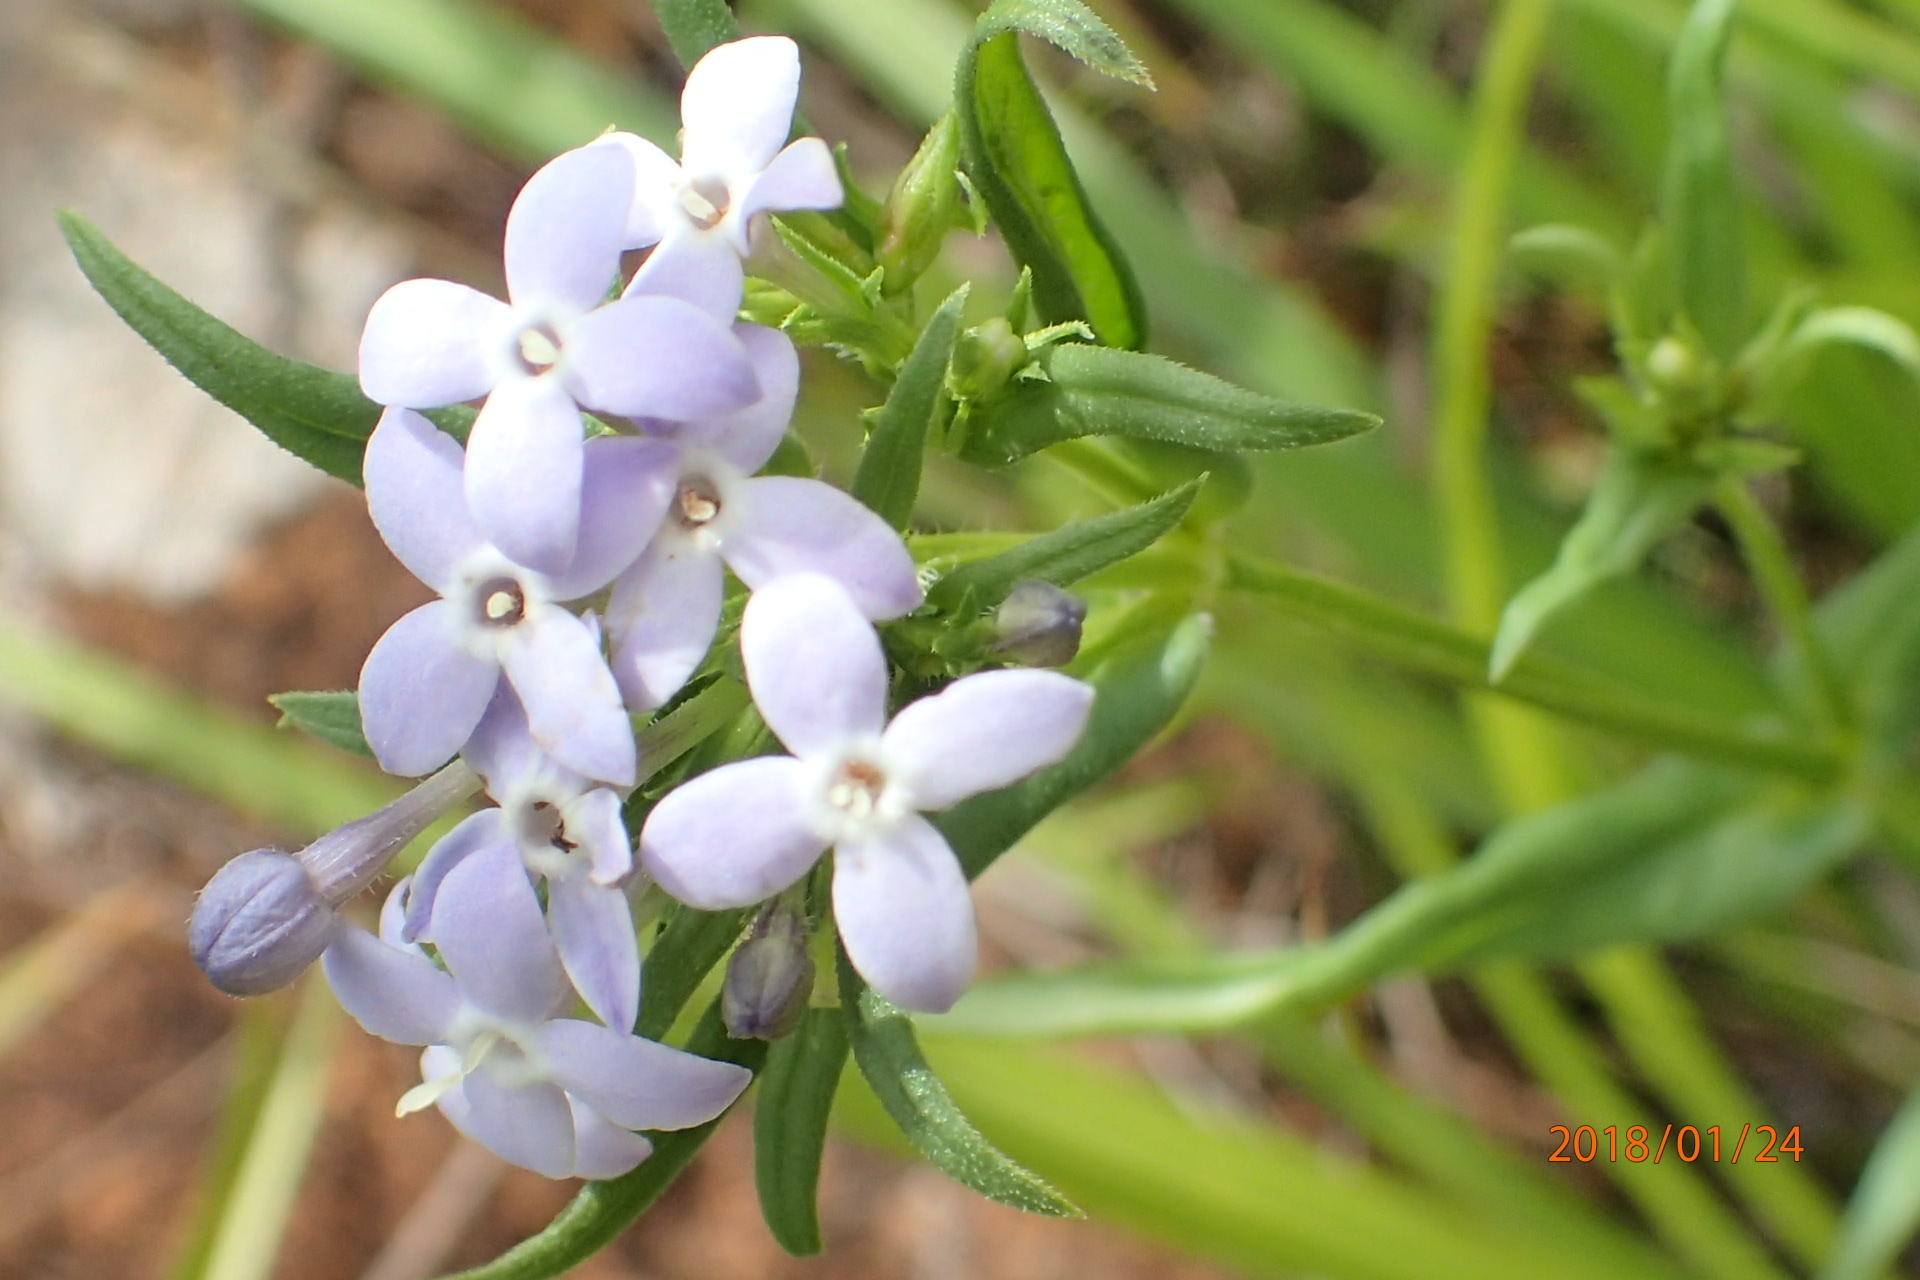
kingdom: Plantae
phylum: Tracheophyta
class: Magnoliopsida
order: Gentianales
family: Rubiaceae
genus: Conostomium
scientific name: Conostomium natalense
